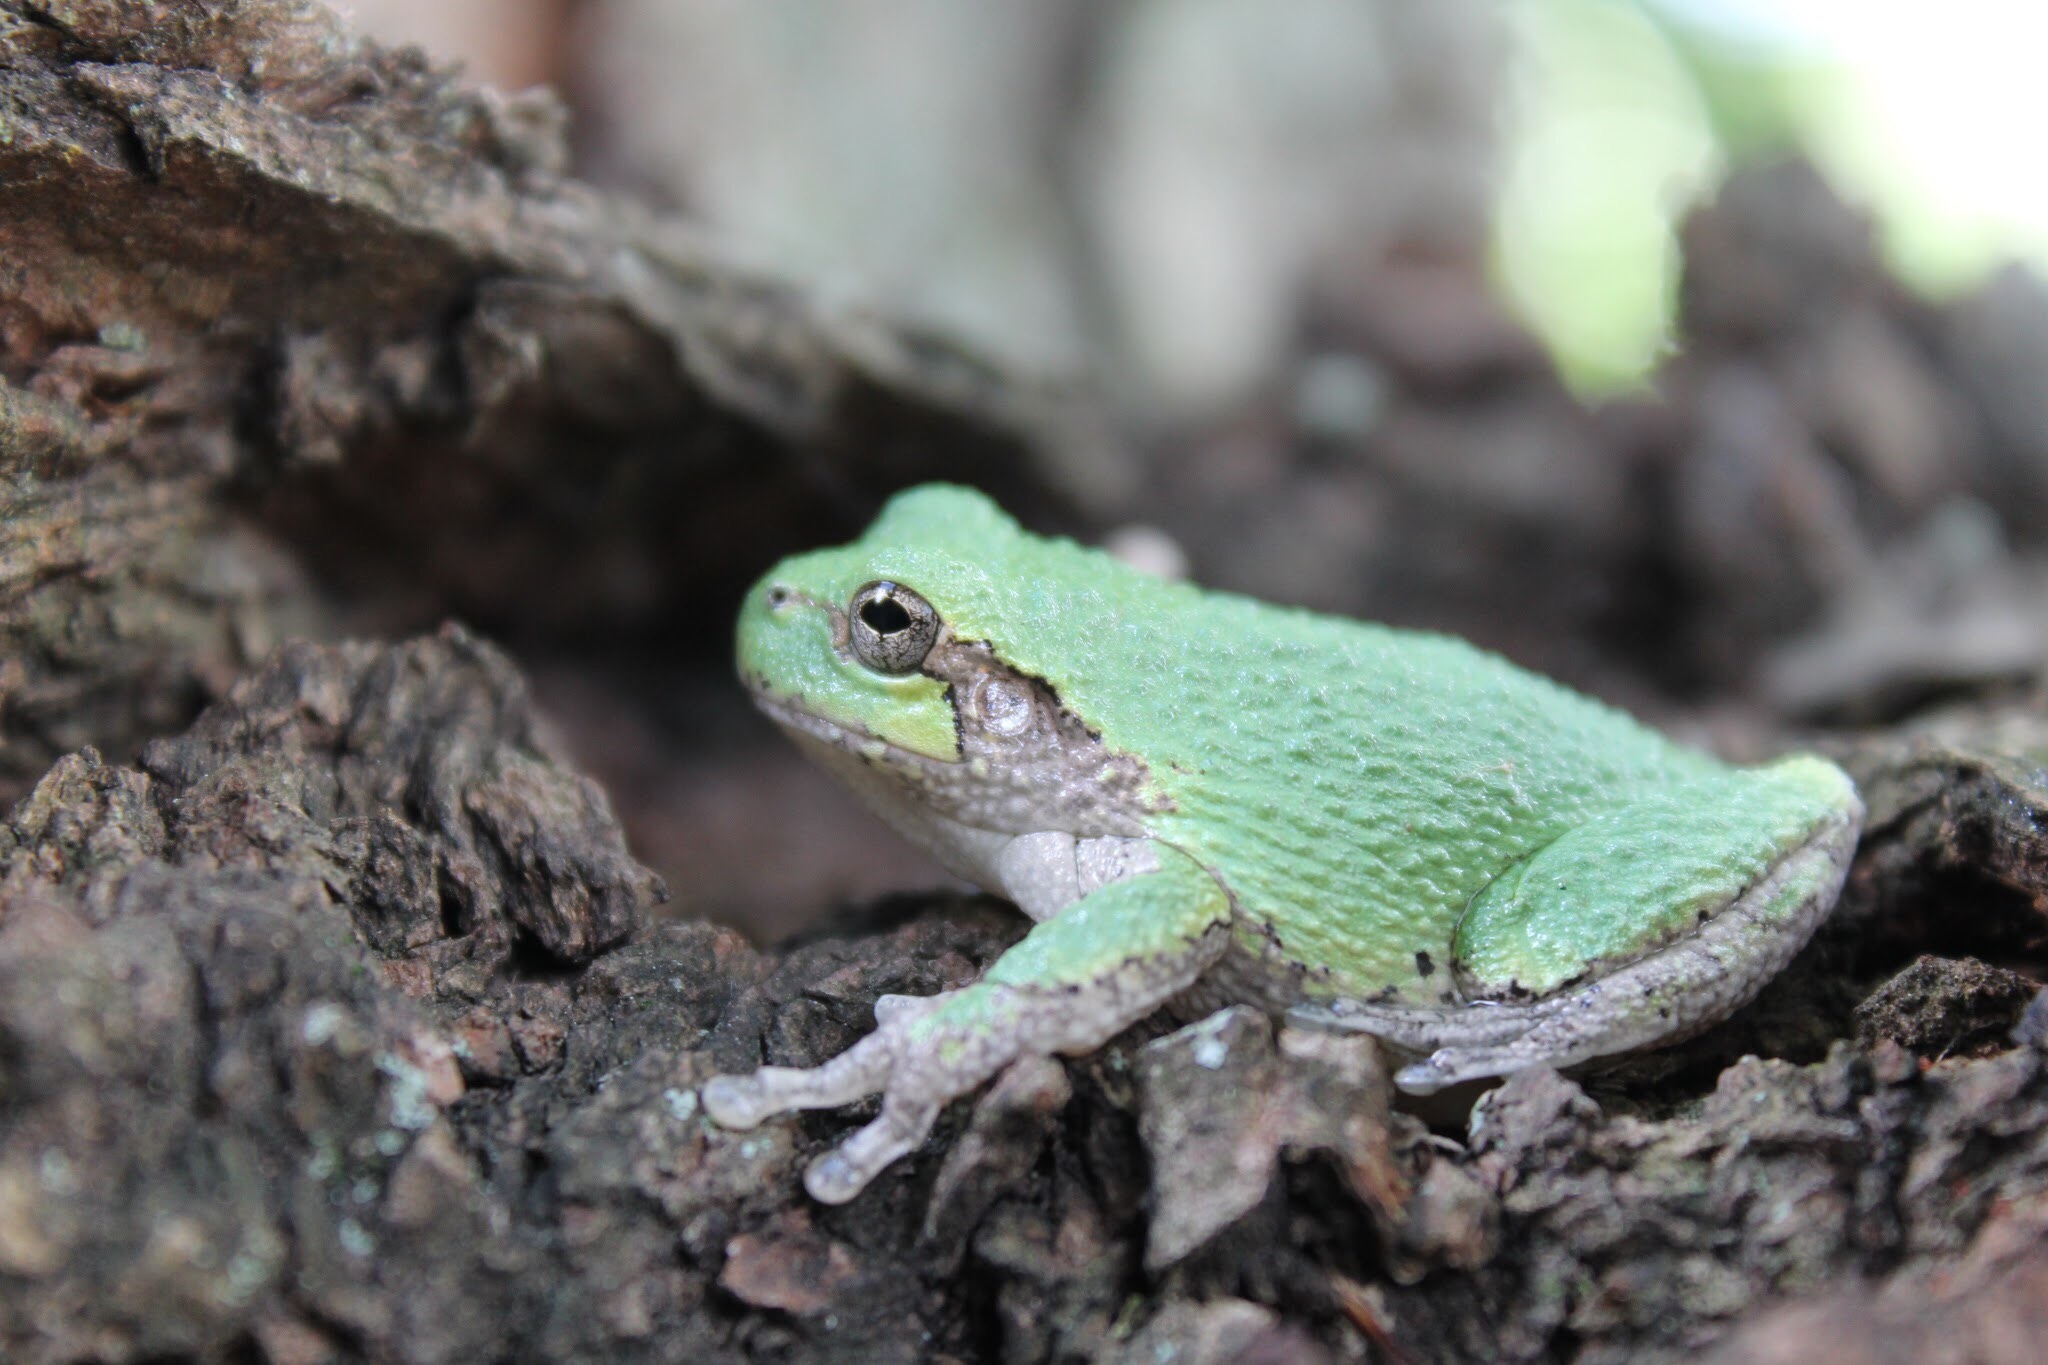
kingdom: Animalia
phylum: Chordata
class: Amphibia
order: Anura
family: Hylidae
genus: Dryophytes
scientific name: Dryophytes versicolor
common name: Gray treefrog
